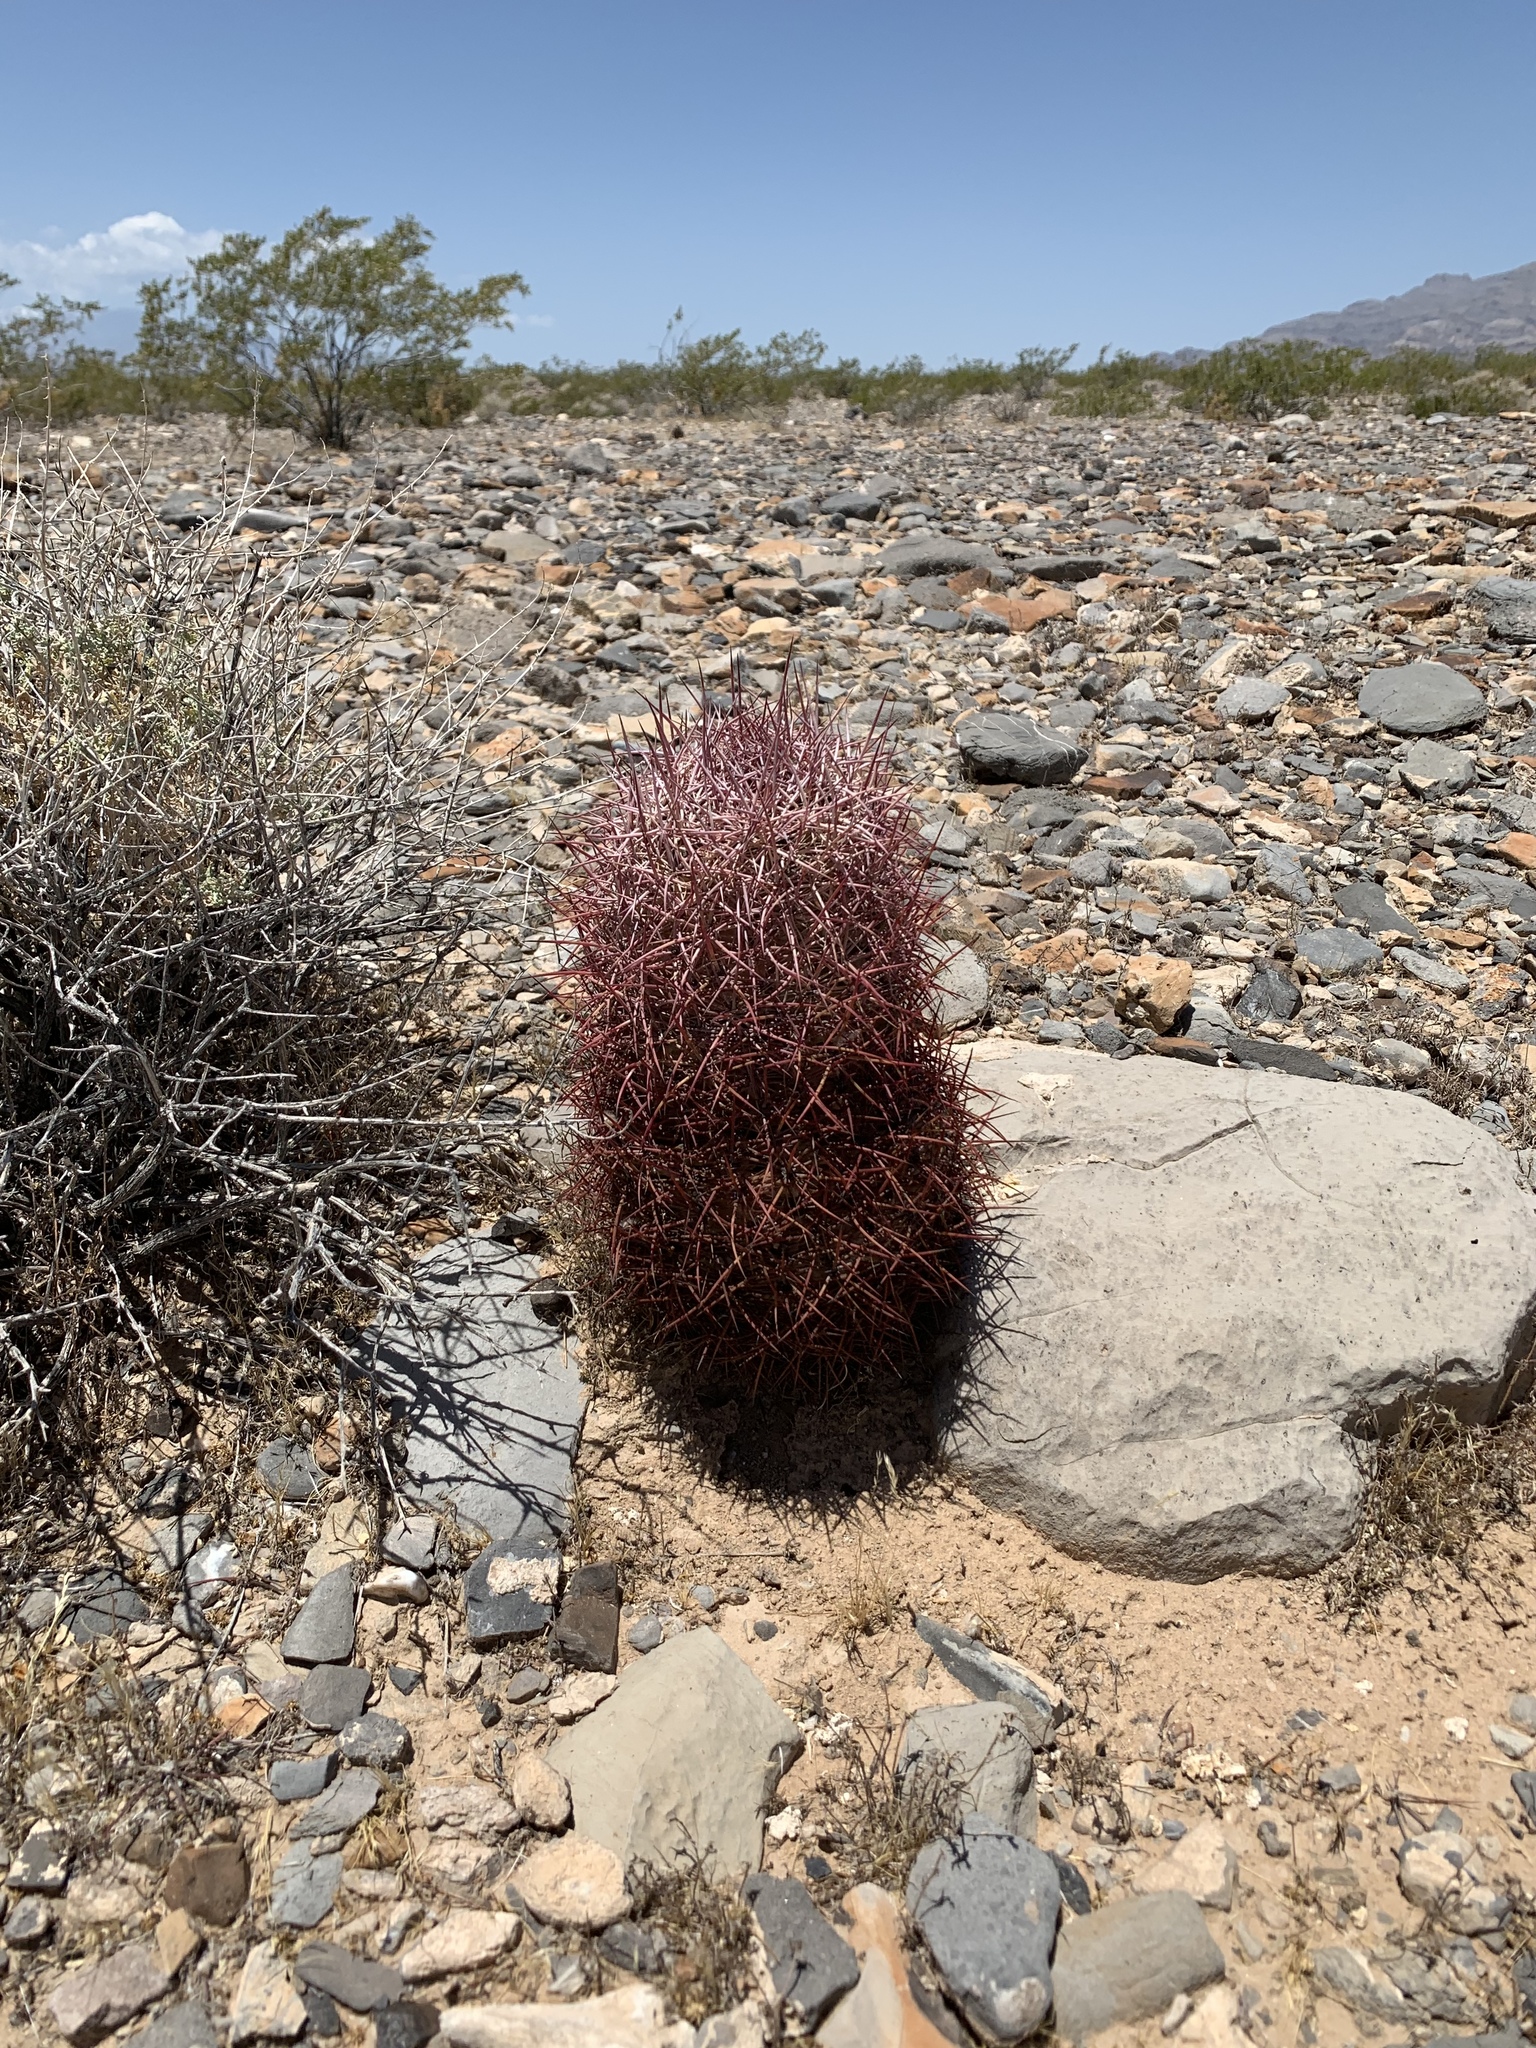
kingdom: Plantae
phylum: Tracheophyta
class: Magnoliopsida
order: Caryophyllales
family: Cactaceae
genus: Sclerocactus
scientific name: Sclerocactus johnsonii
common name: Eight-spine fishhook cactus
